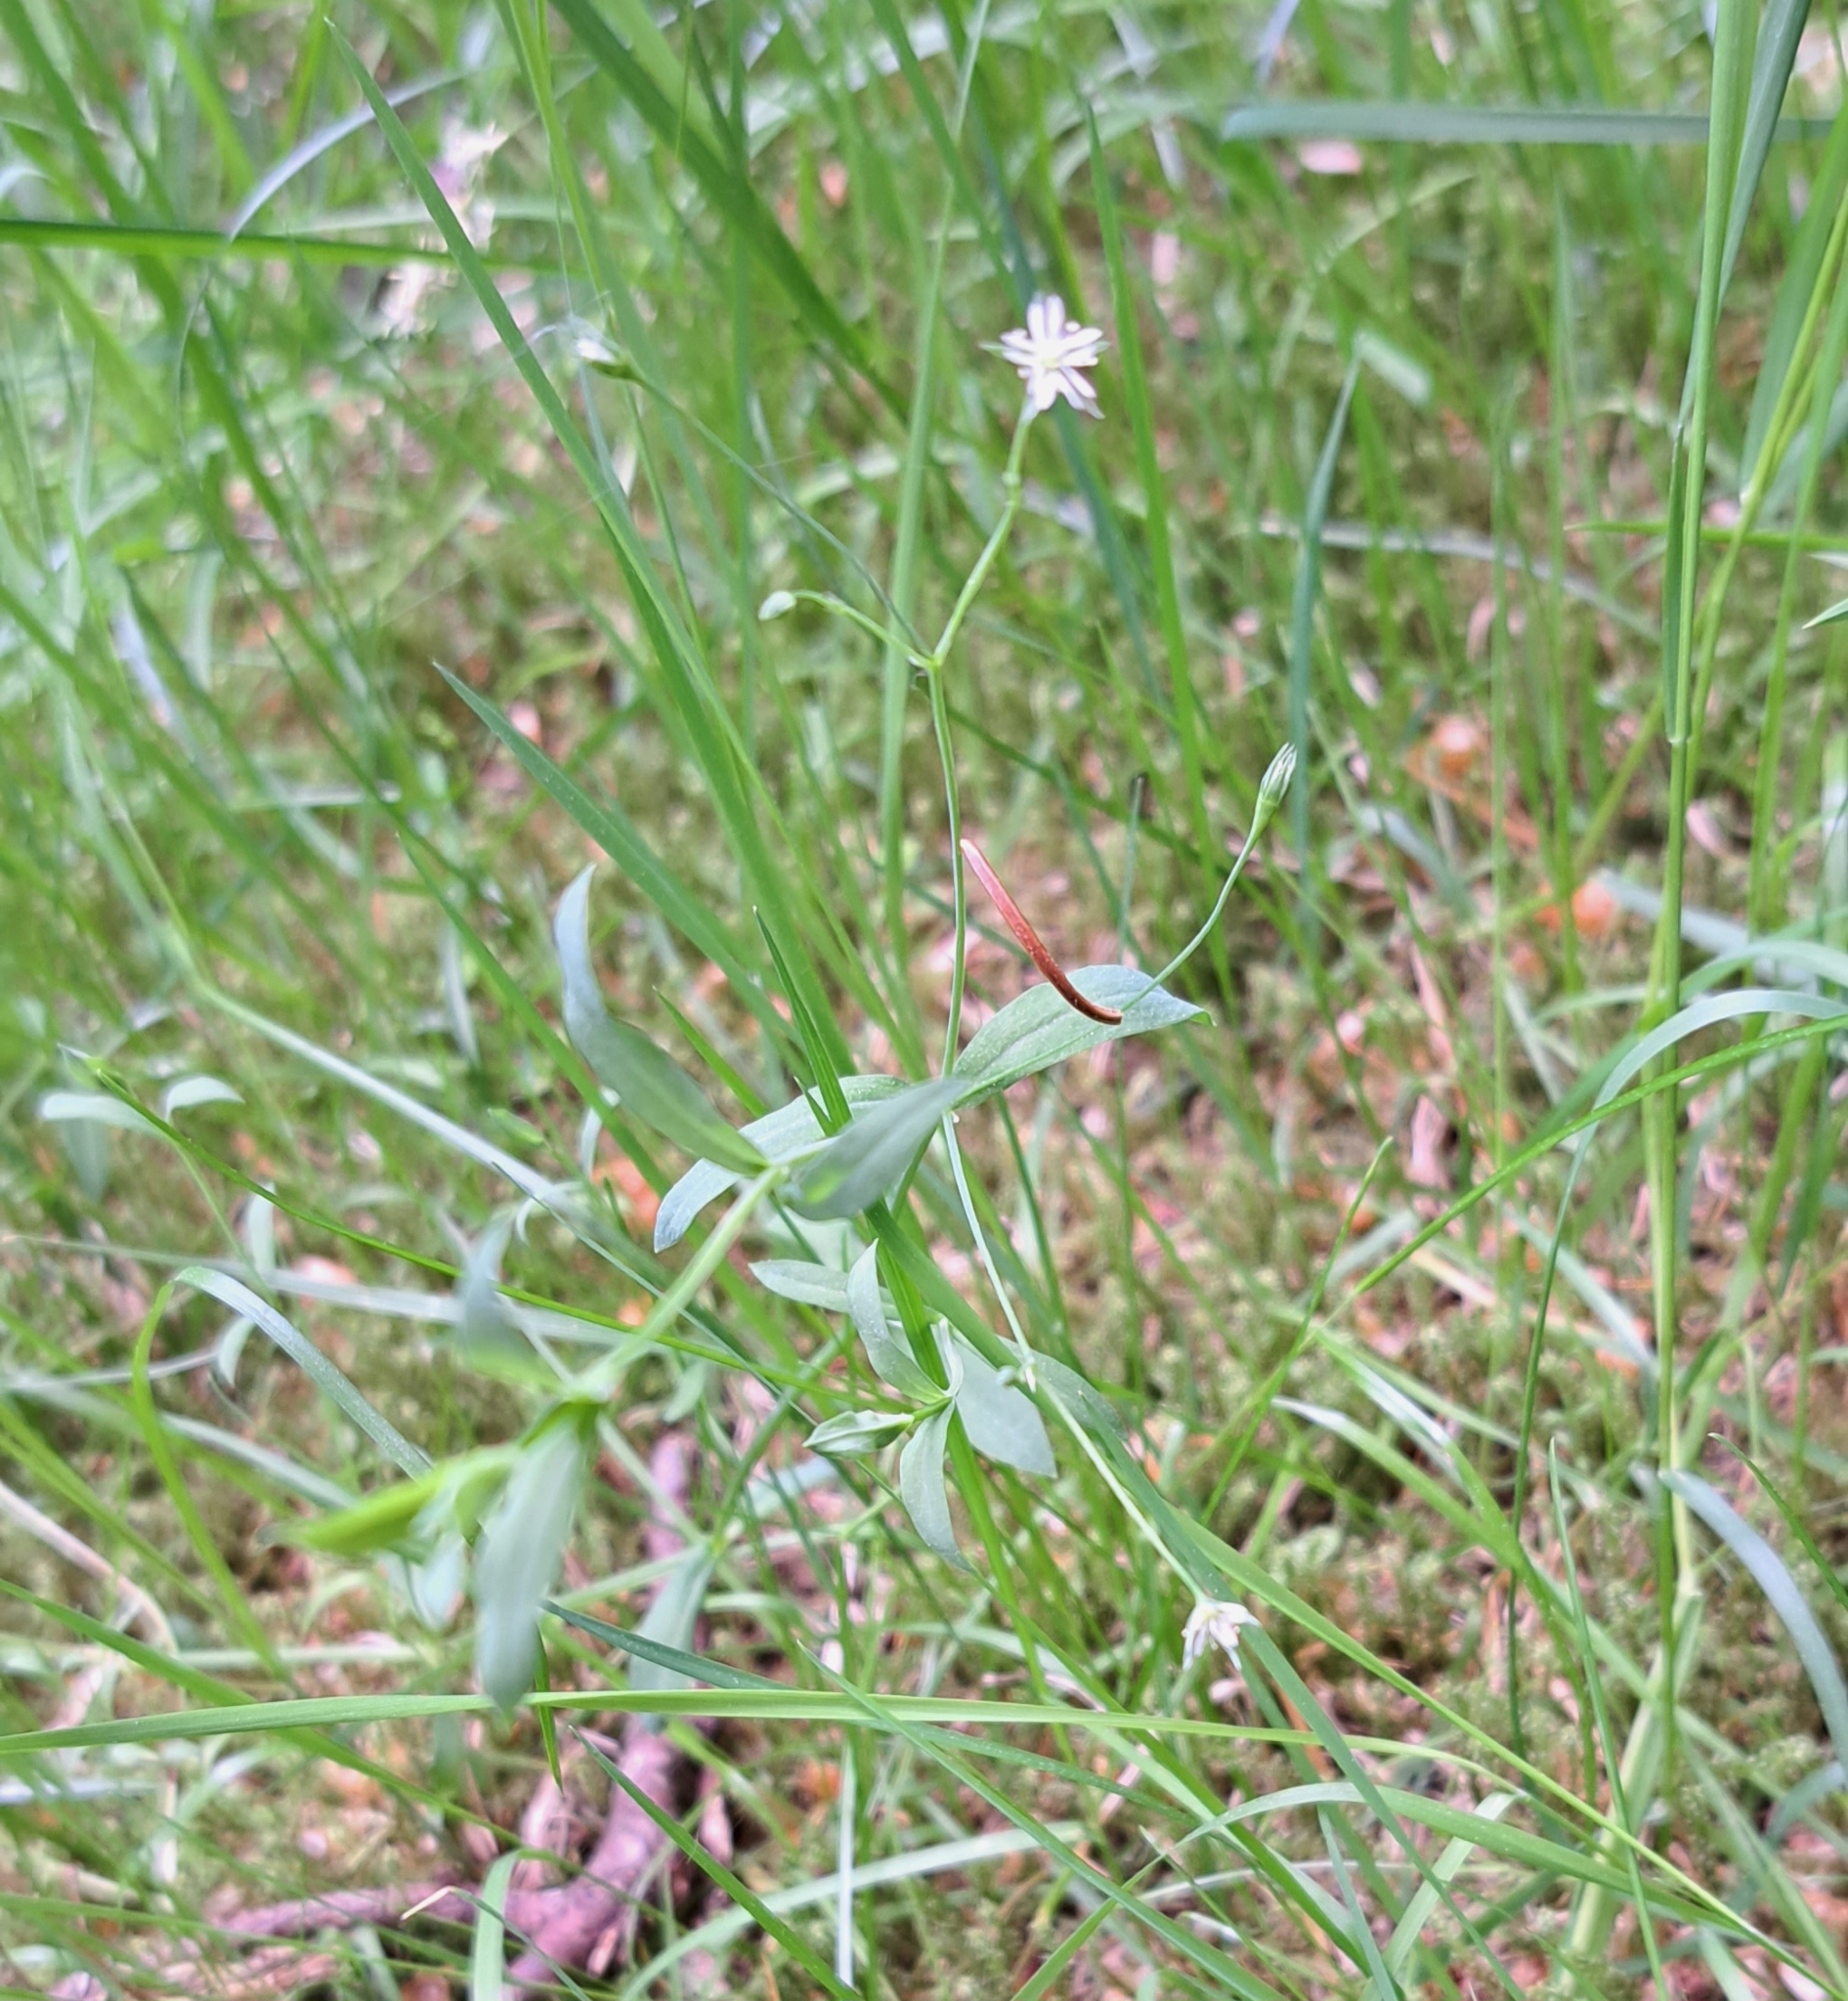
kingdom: Plantae
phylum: Tracheophyta
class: Magnoliopsida
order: Caryophyllales
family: Caryophyllaceae
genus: Stellaria
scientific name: Stellaria alsine
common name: Bog stitchwort
